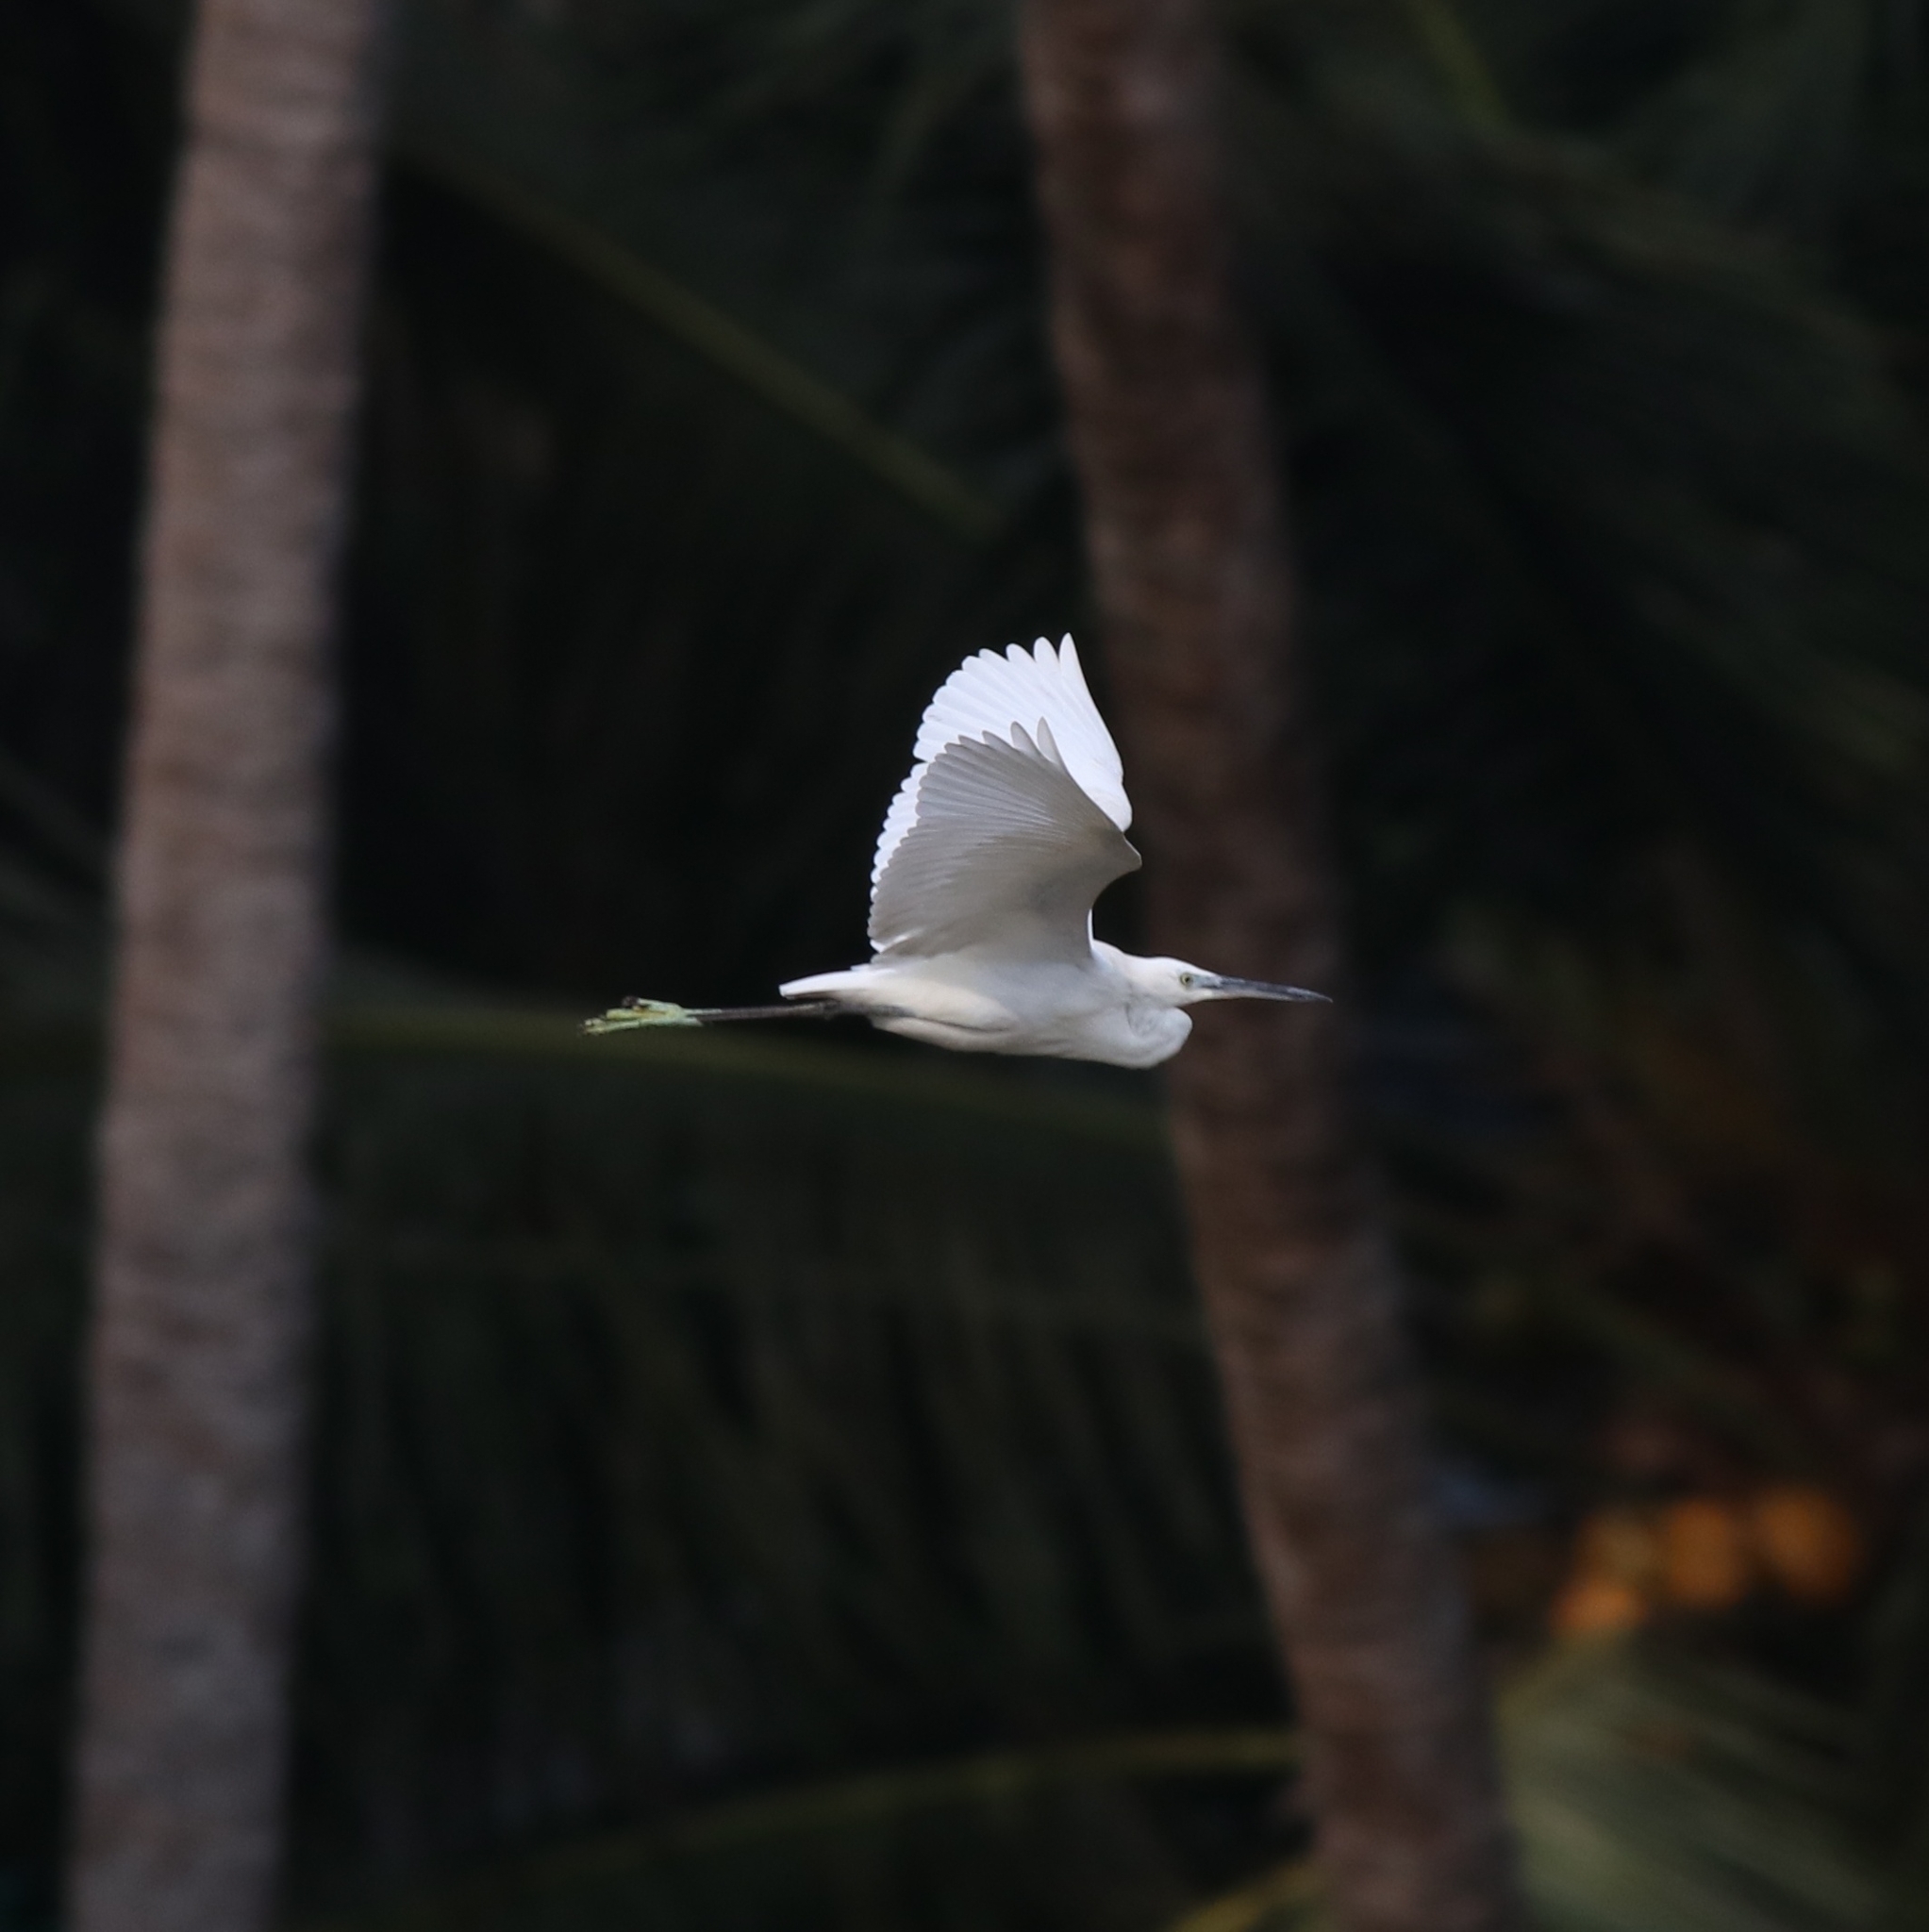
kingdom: Animalia
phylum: Chordata
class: Aves
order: Pelecaniformes
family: Ardeidae
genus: Egretta
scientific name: Egretta garzetta
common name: Little egret
